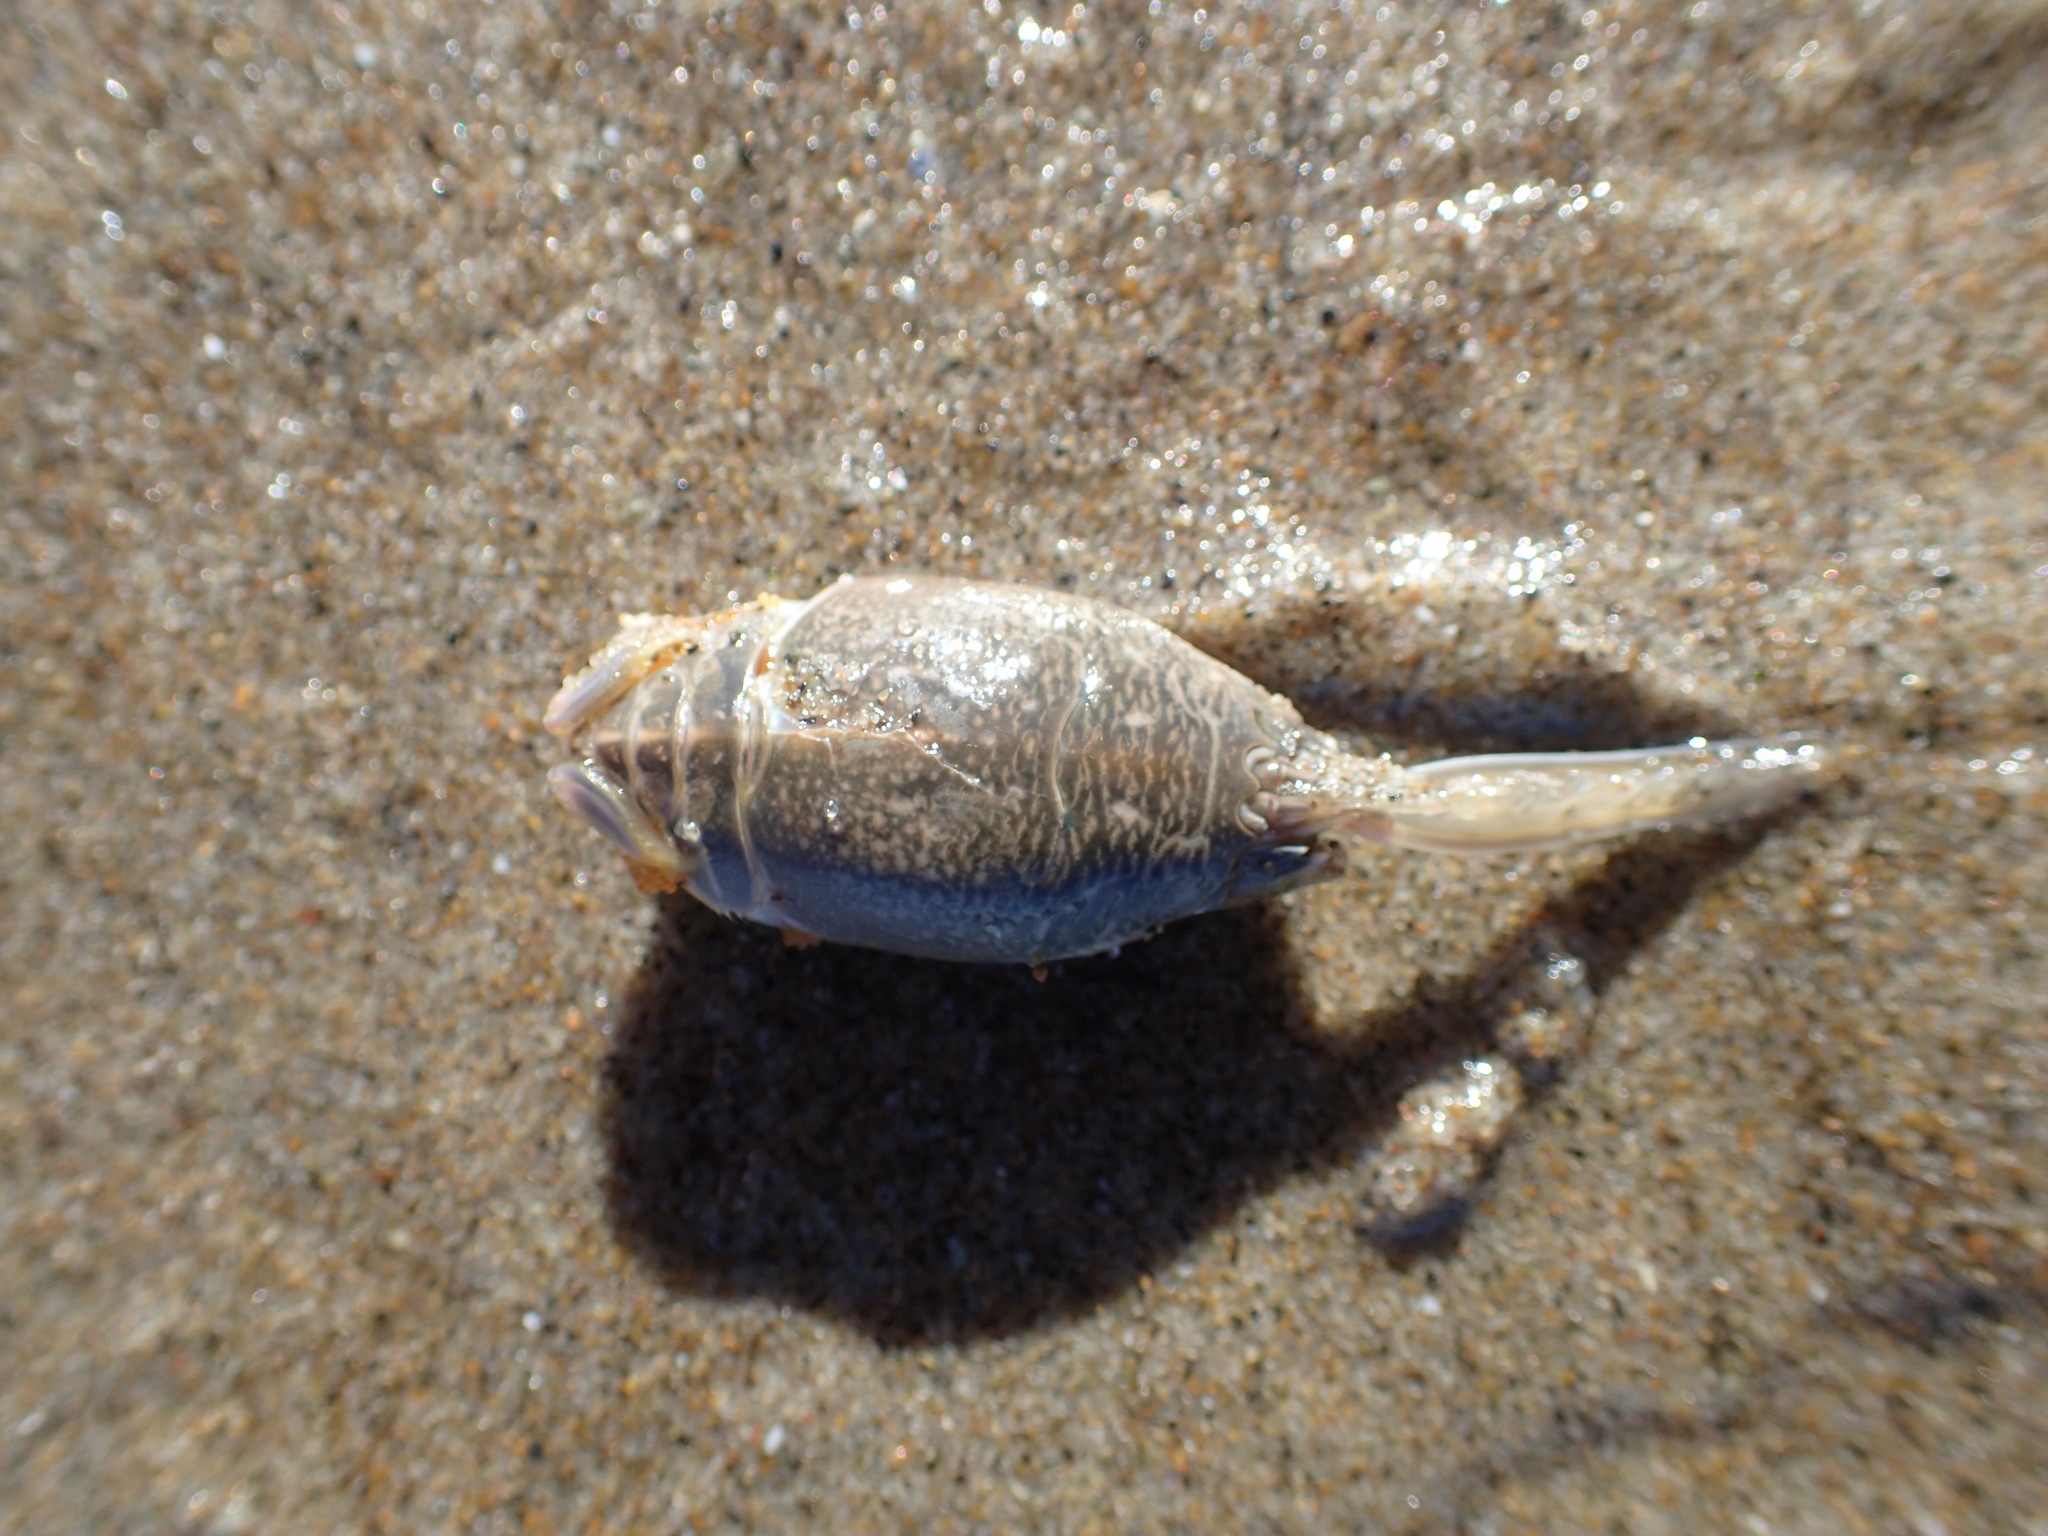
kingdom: Animalia
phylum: Arthropoda
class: Malacostraca
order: Decapoda
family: Hippidae
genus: Emerita
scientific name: Emerita analoga
